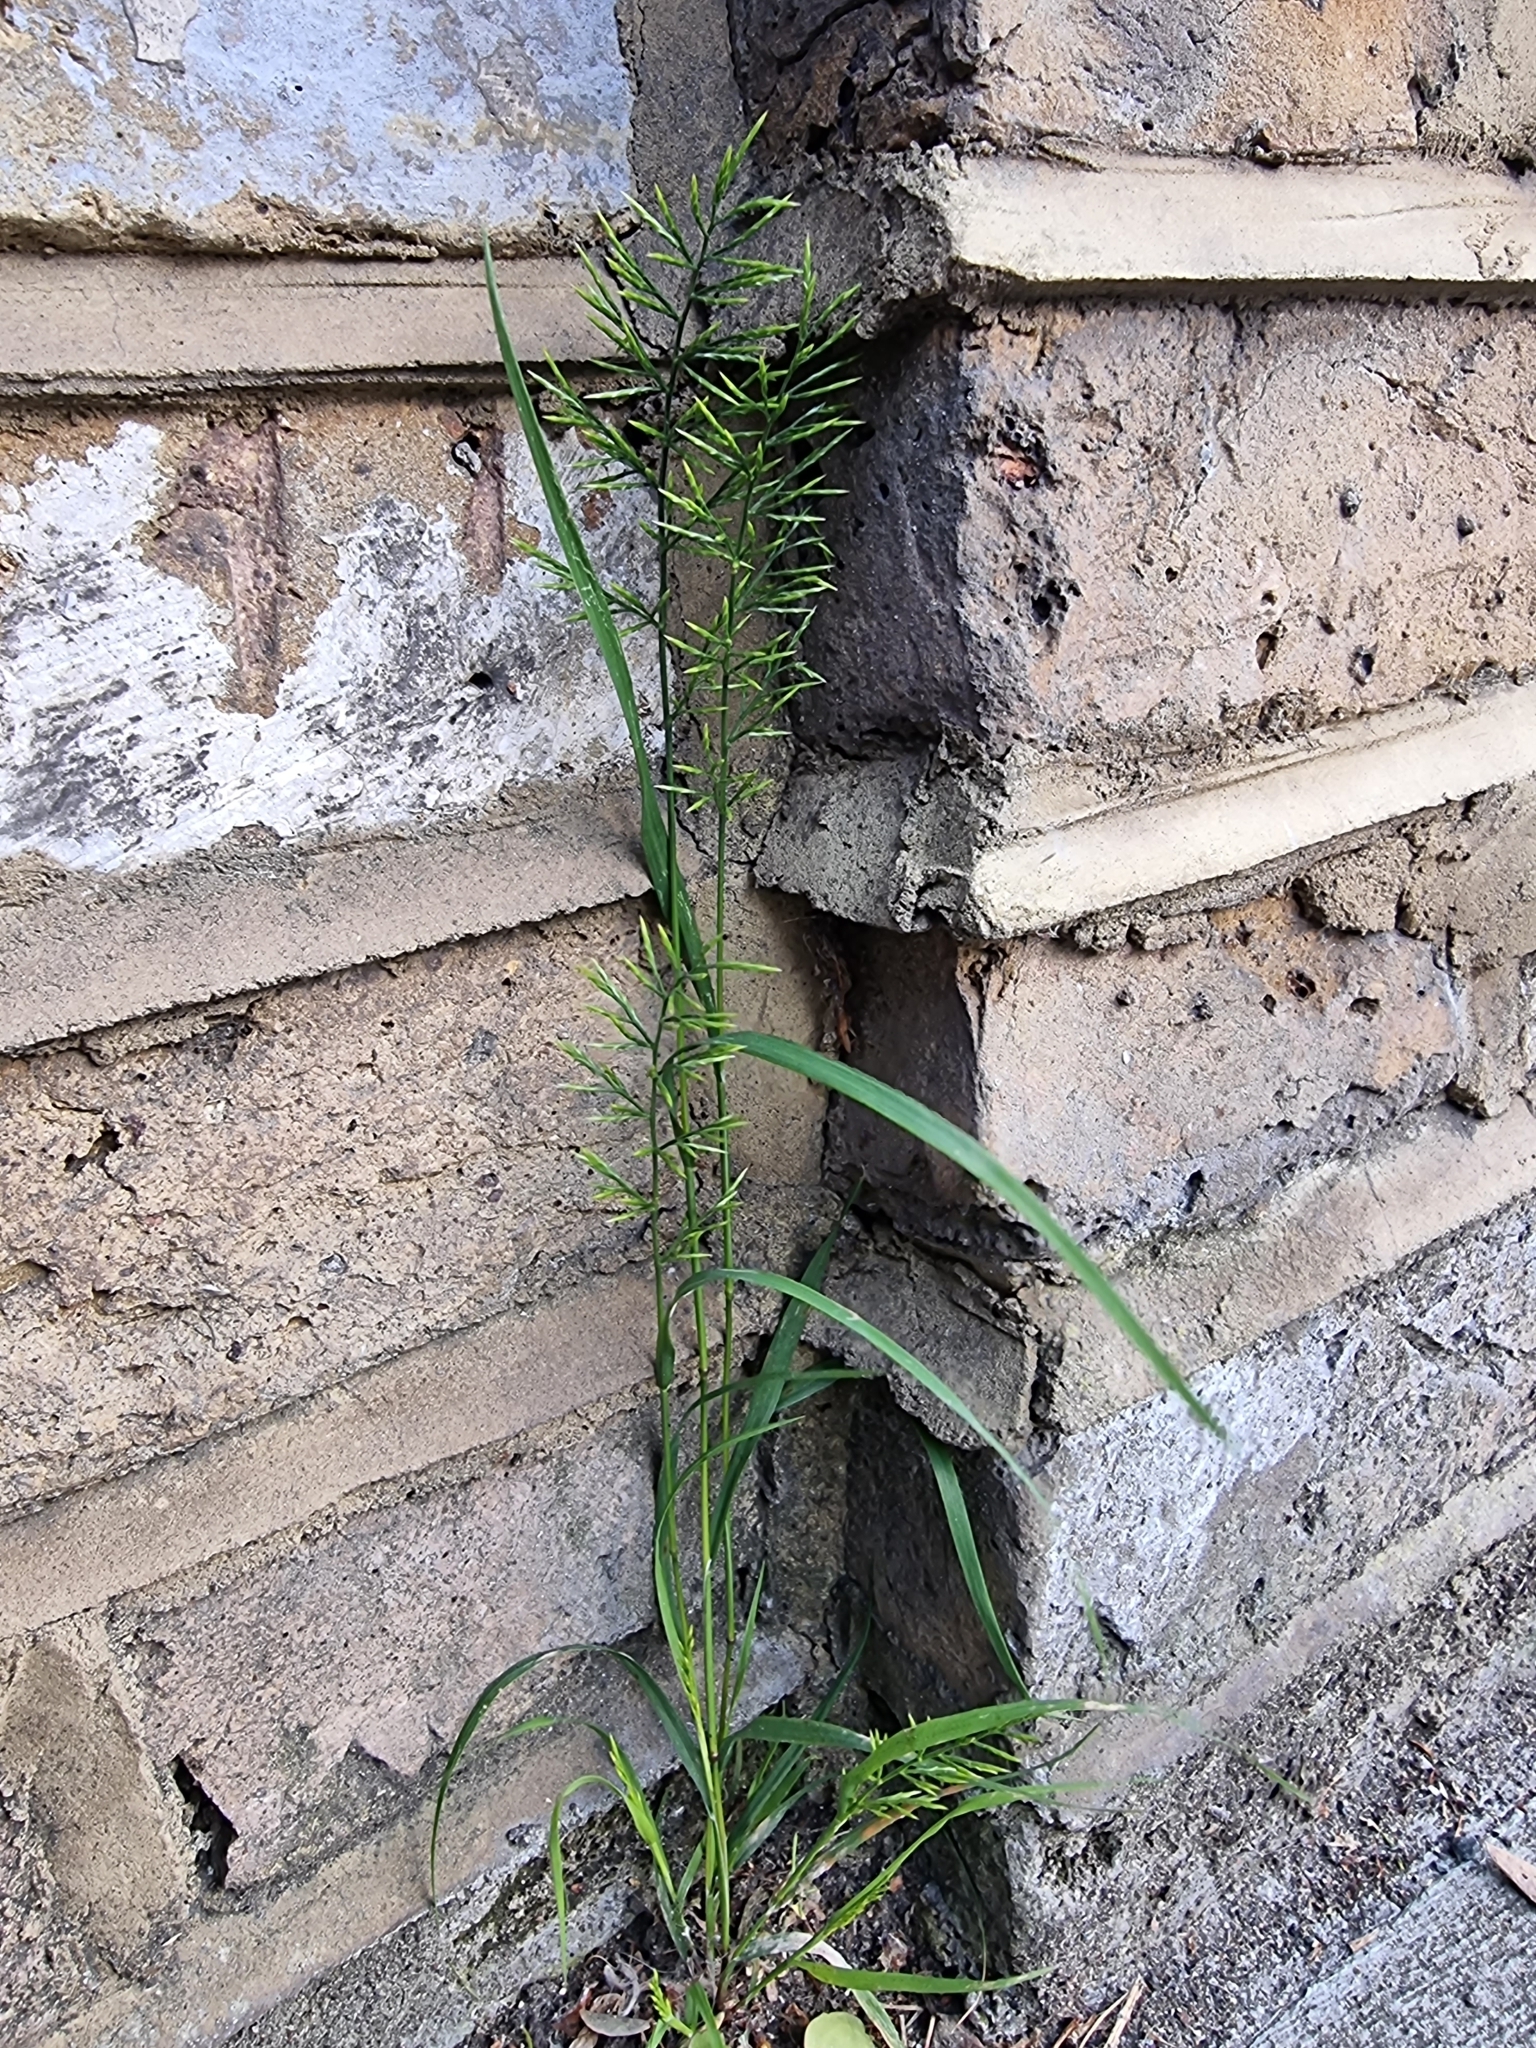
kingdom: Plantae
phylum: Tracheophyta
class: Liliopsida
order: Poales
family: Poaceae
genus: Catapodium
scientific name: Catapodium rigidum
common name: Fern-grass
